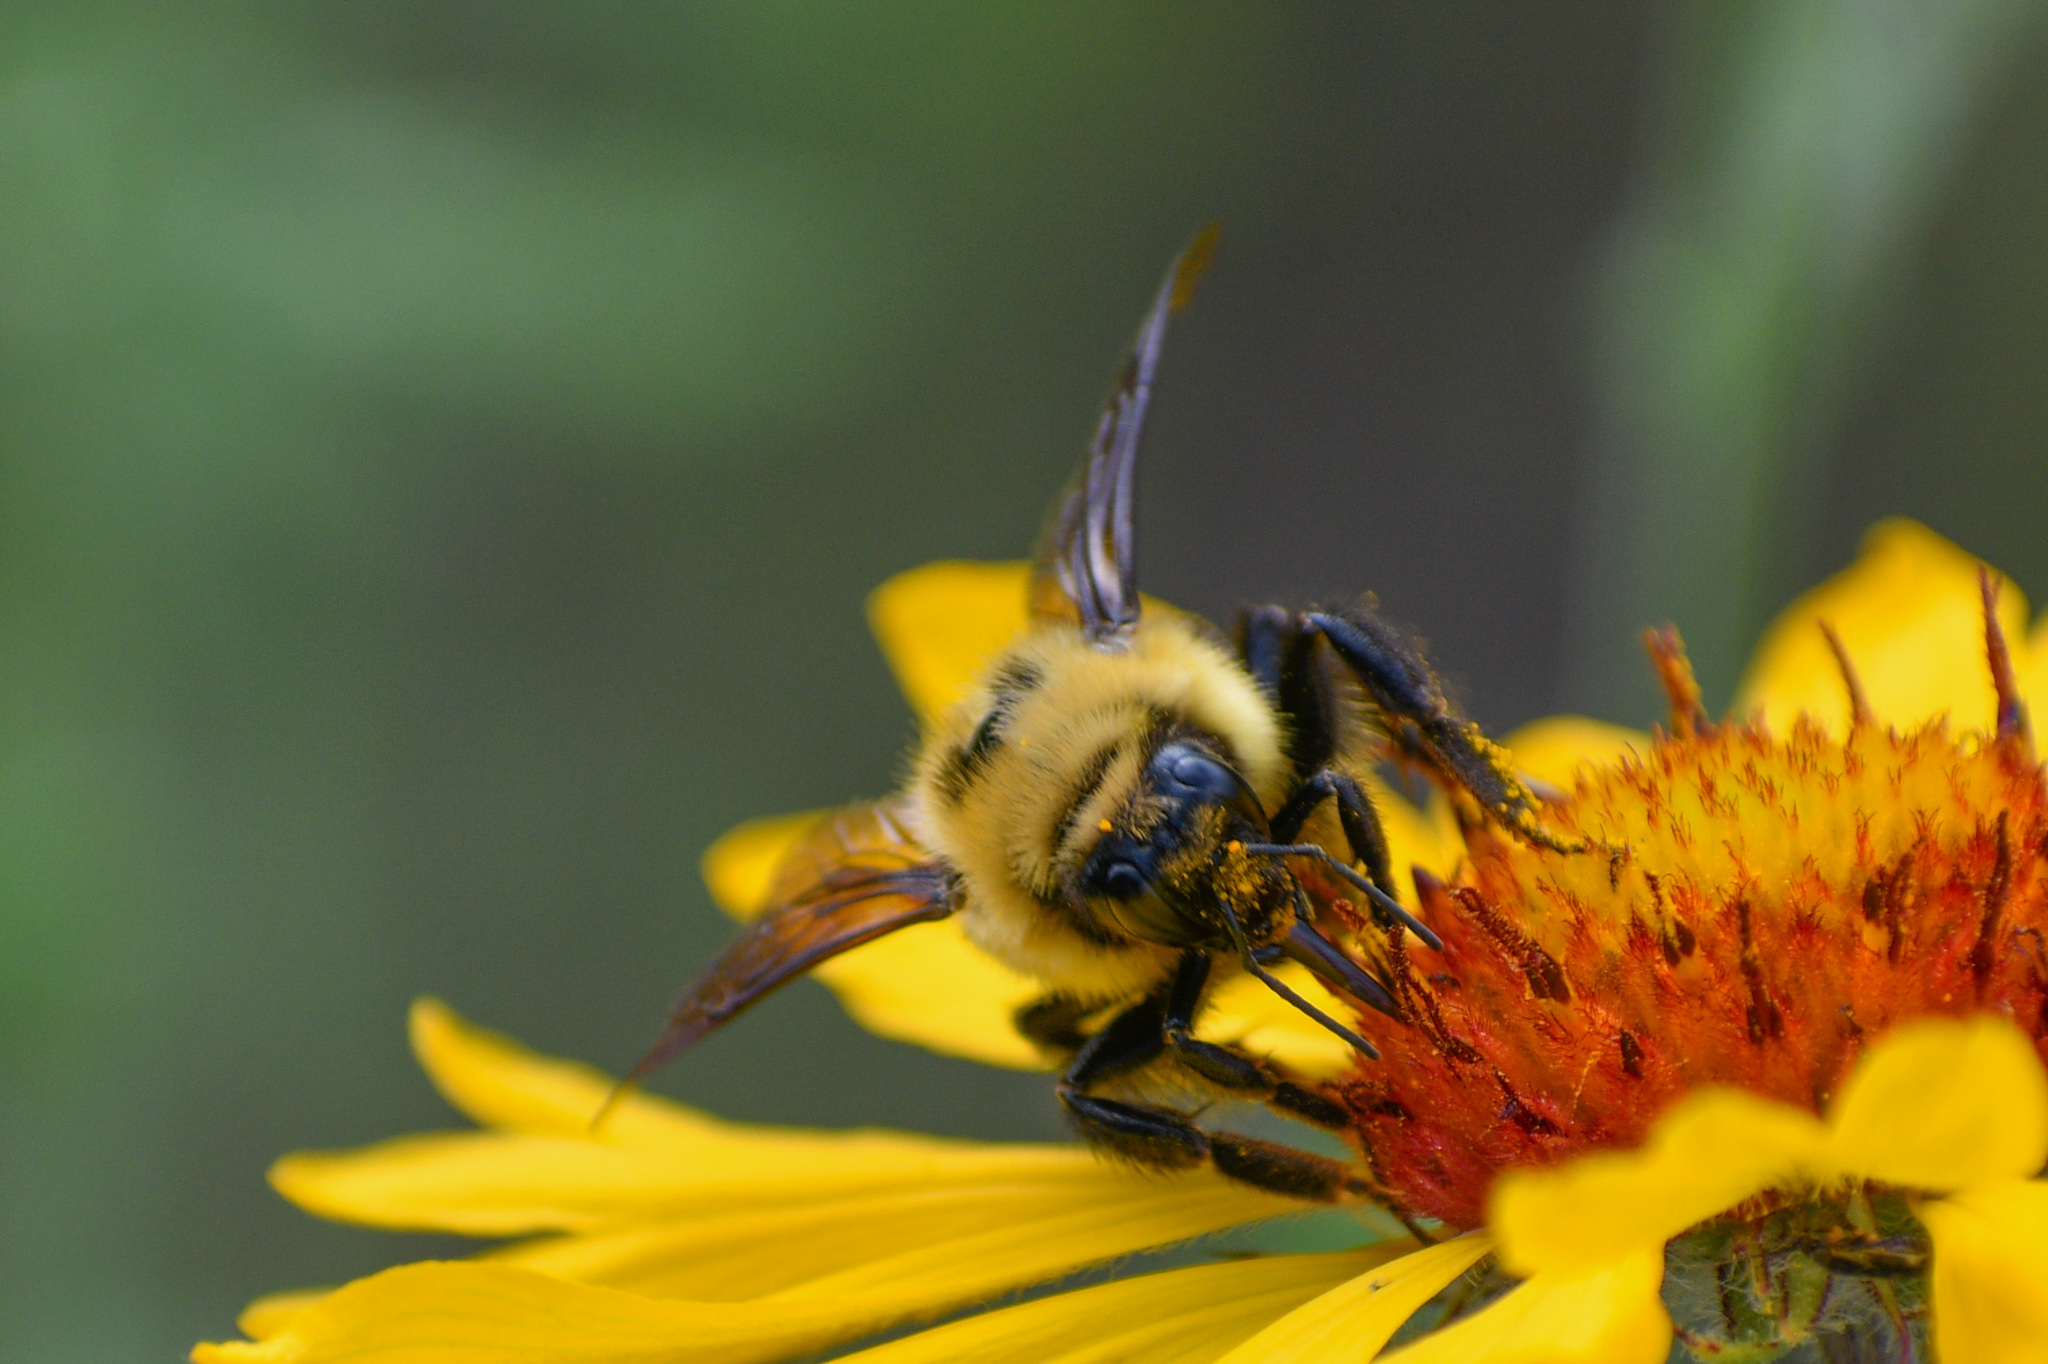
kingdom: Animalia
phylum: Arthropoda
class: Insecta
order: Hymenoptera
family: Apidae
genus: Bombus
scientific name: Bombus rufocinctus
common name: Red-belted bumble bee
